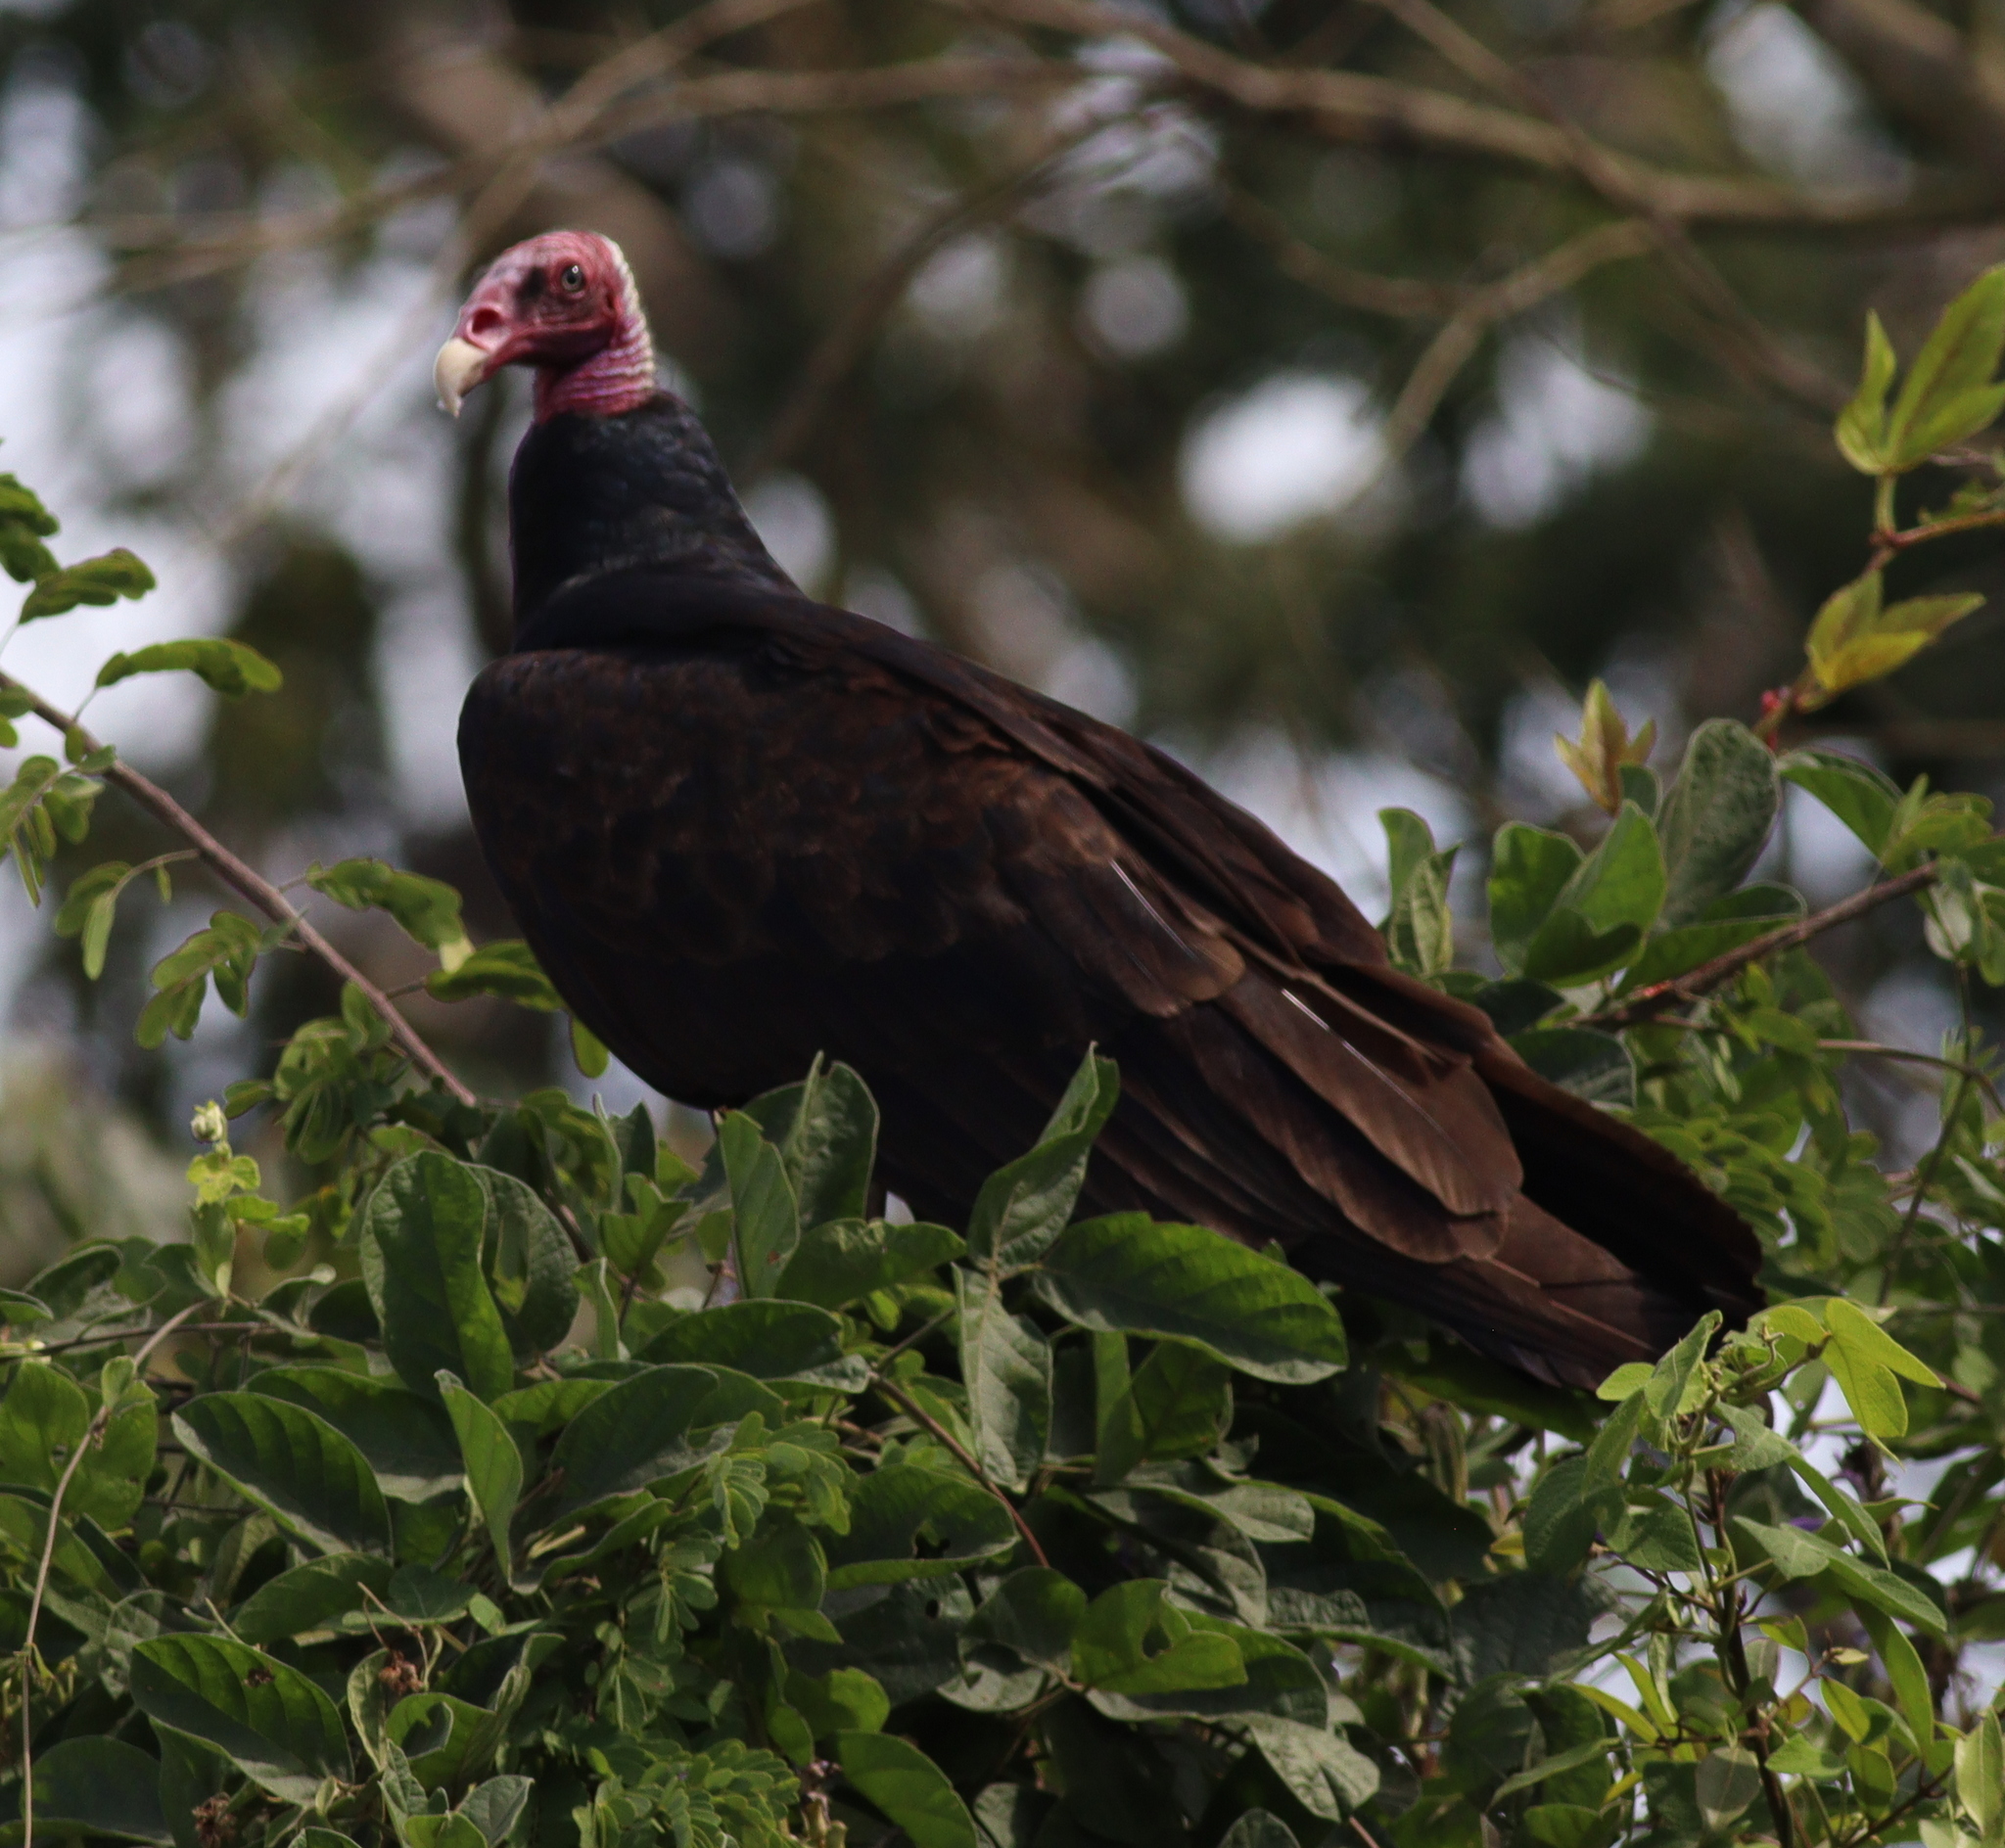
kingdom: Animalia
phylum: Chordata
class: Aves
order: Accipitriformes
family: Cathartidae
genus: Cathartes
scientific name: Cathartes aura
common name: Turkey vulture
